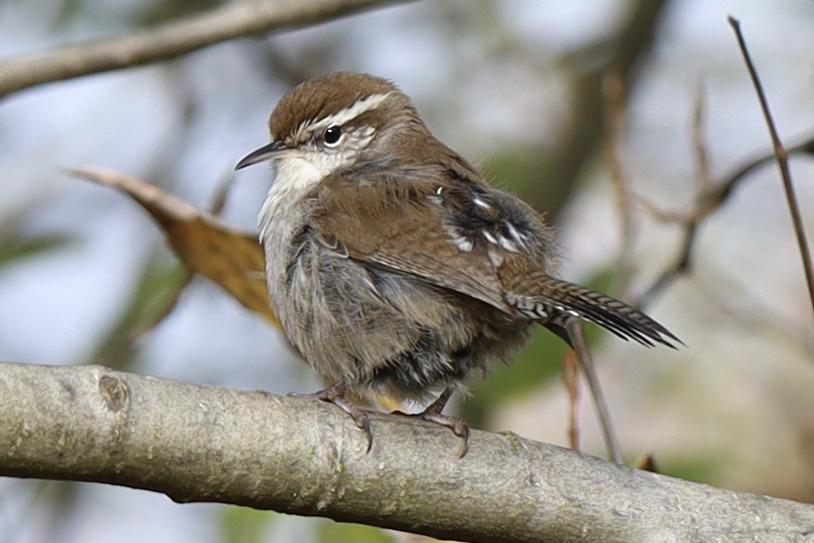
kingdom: Animalia
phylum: Chordata
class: Aves
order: Passeriformes
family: Troglodytidae
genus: Thryomanes
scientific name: Thryomanes bewickii
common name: Bewick's wren
